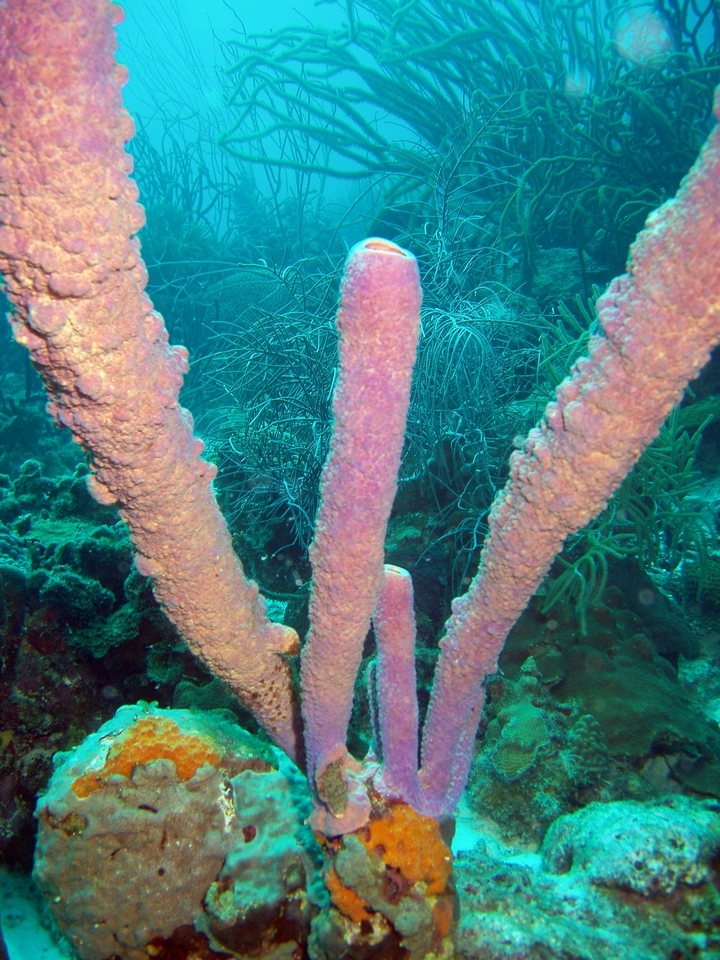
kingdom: Animalia
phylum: Porifera
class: Demospongiae
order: Verongiida
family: Aplysinidae
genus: Aplysina
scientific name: Aplysina archeri
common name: Stove-pipe sponge
